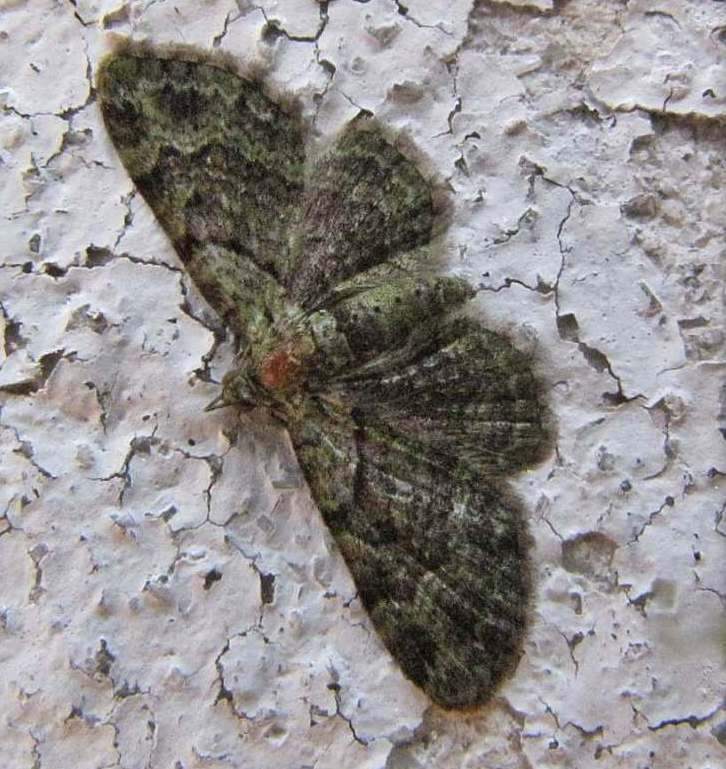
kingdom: Animalia
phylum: Arthropoda
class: Insecta
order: Lepidoptera
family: Geometridae
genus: Pasiphila
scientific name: Pasiphila rectangulata
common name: Green pug
